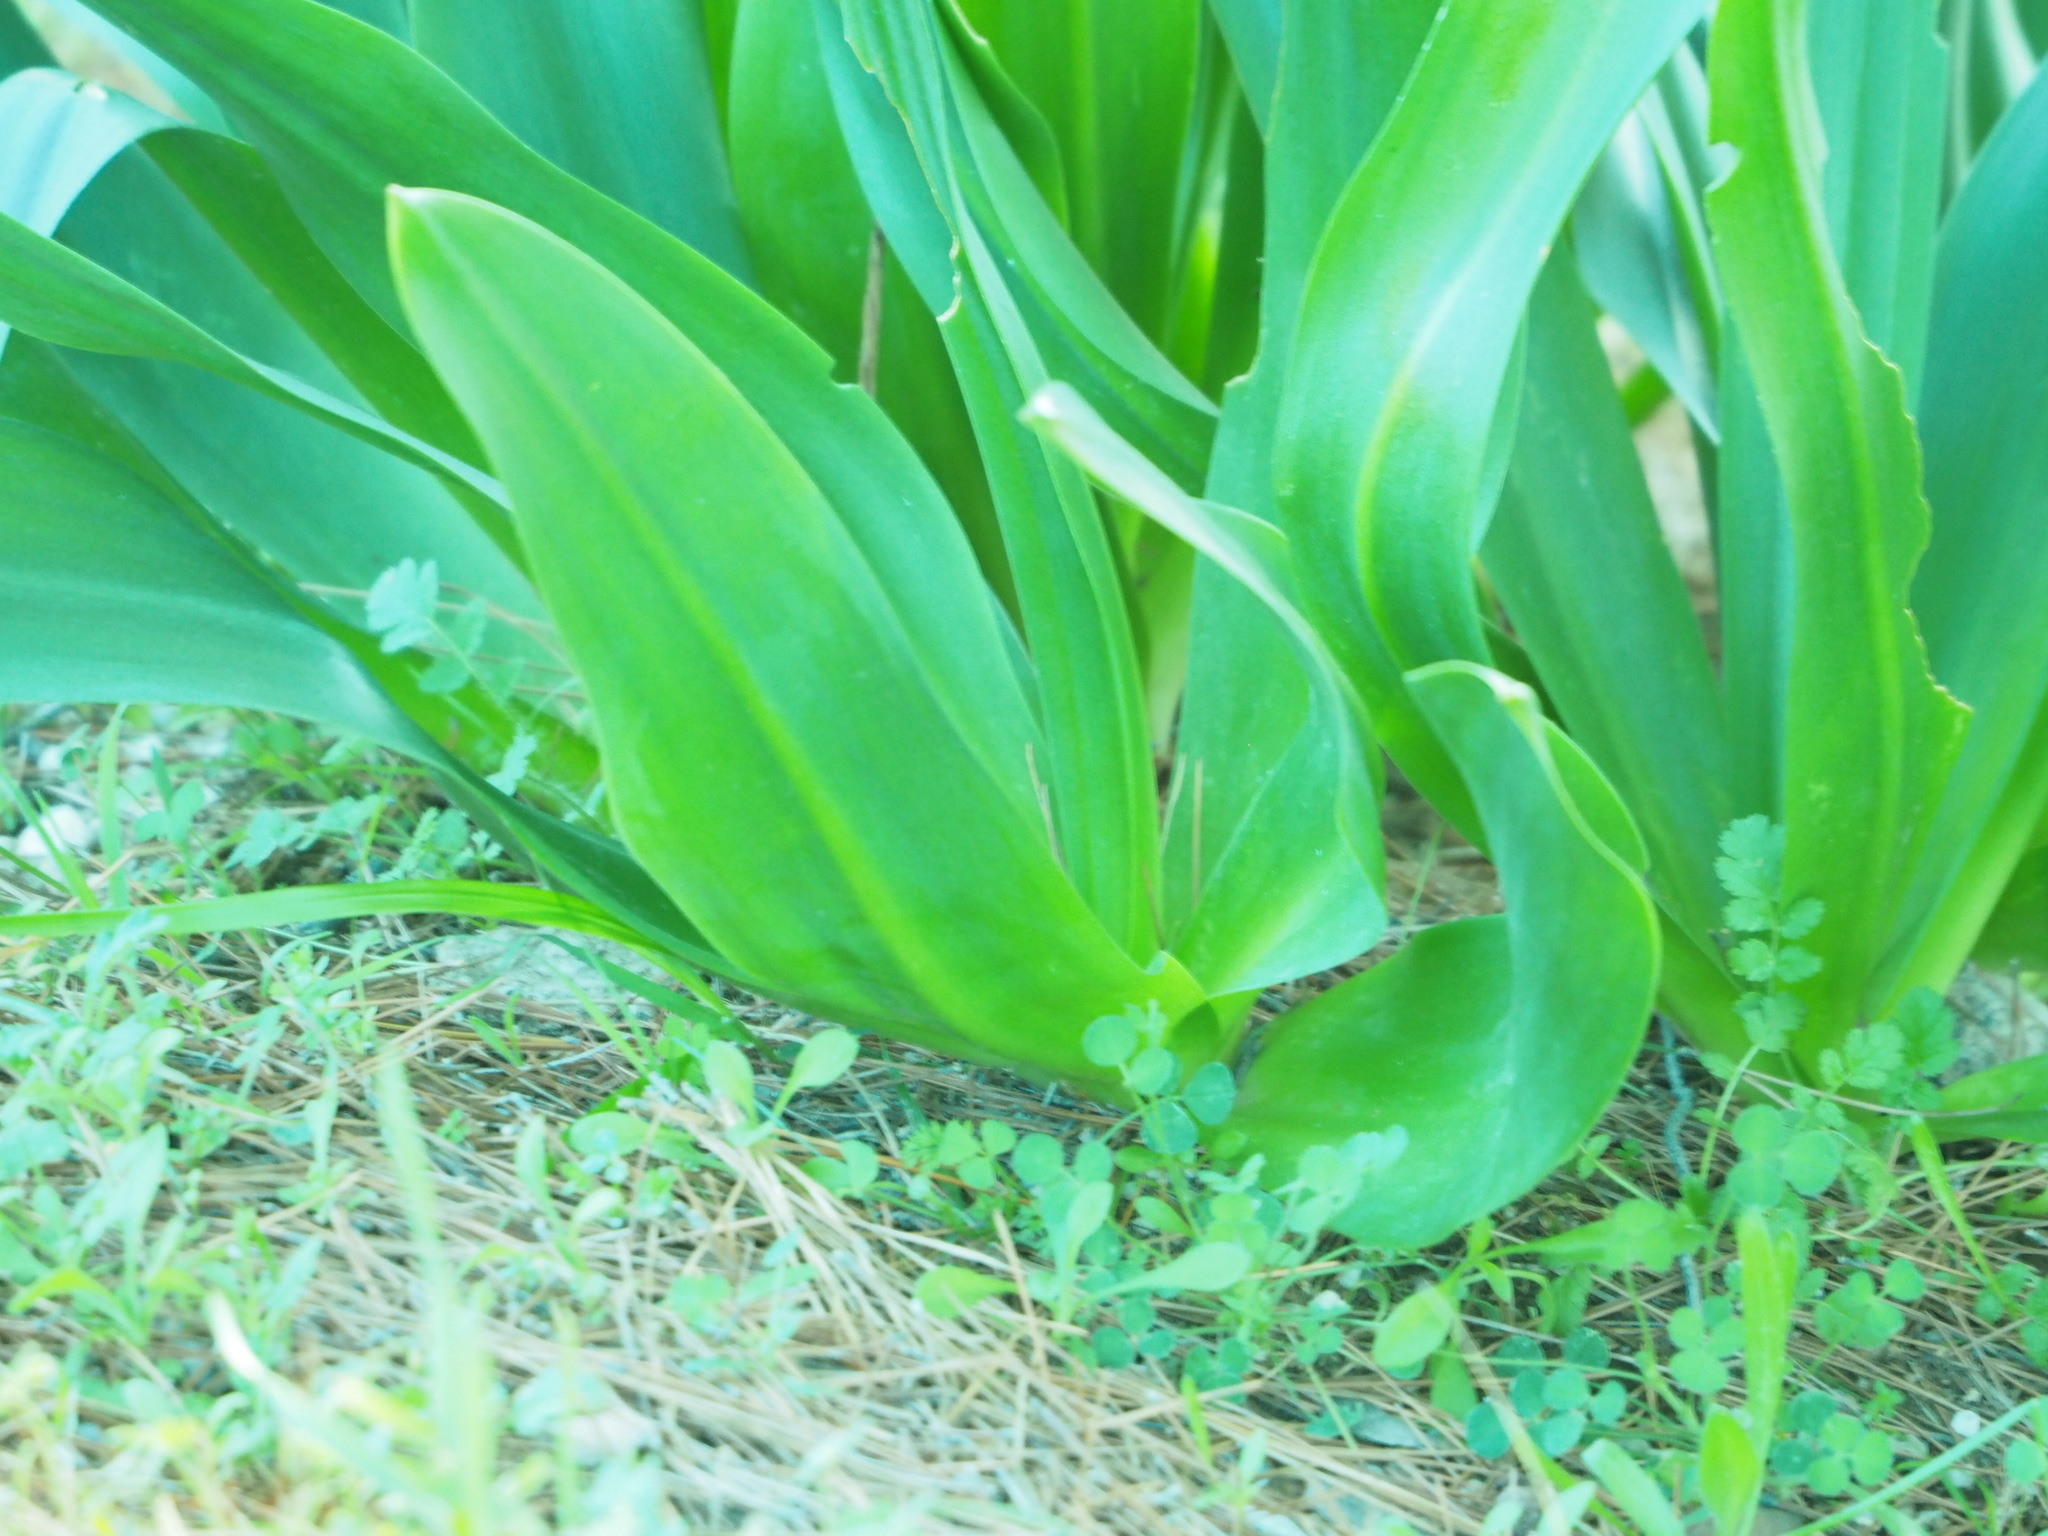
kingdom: Plantae
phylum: Tracheophyta
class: Liliopsida
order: Asparagales
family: Asparagaceae
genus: Drimia
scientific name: Drimia numidica
